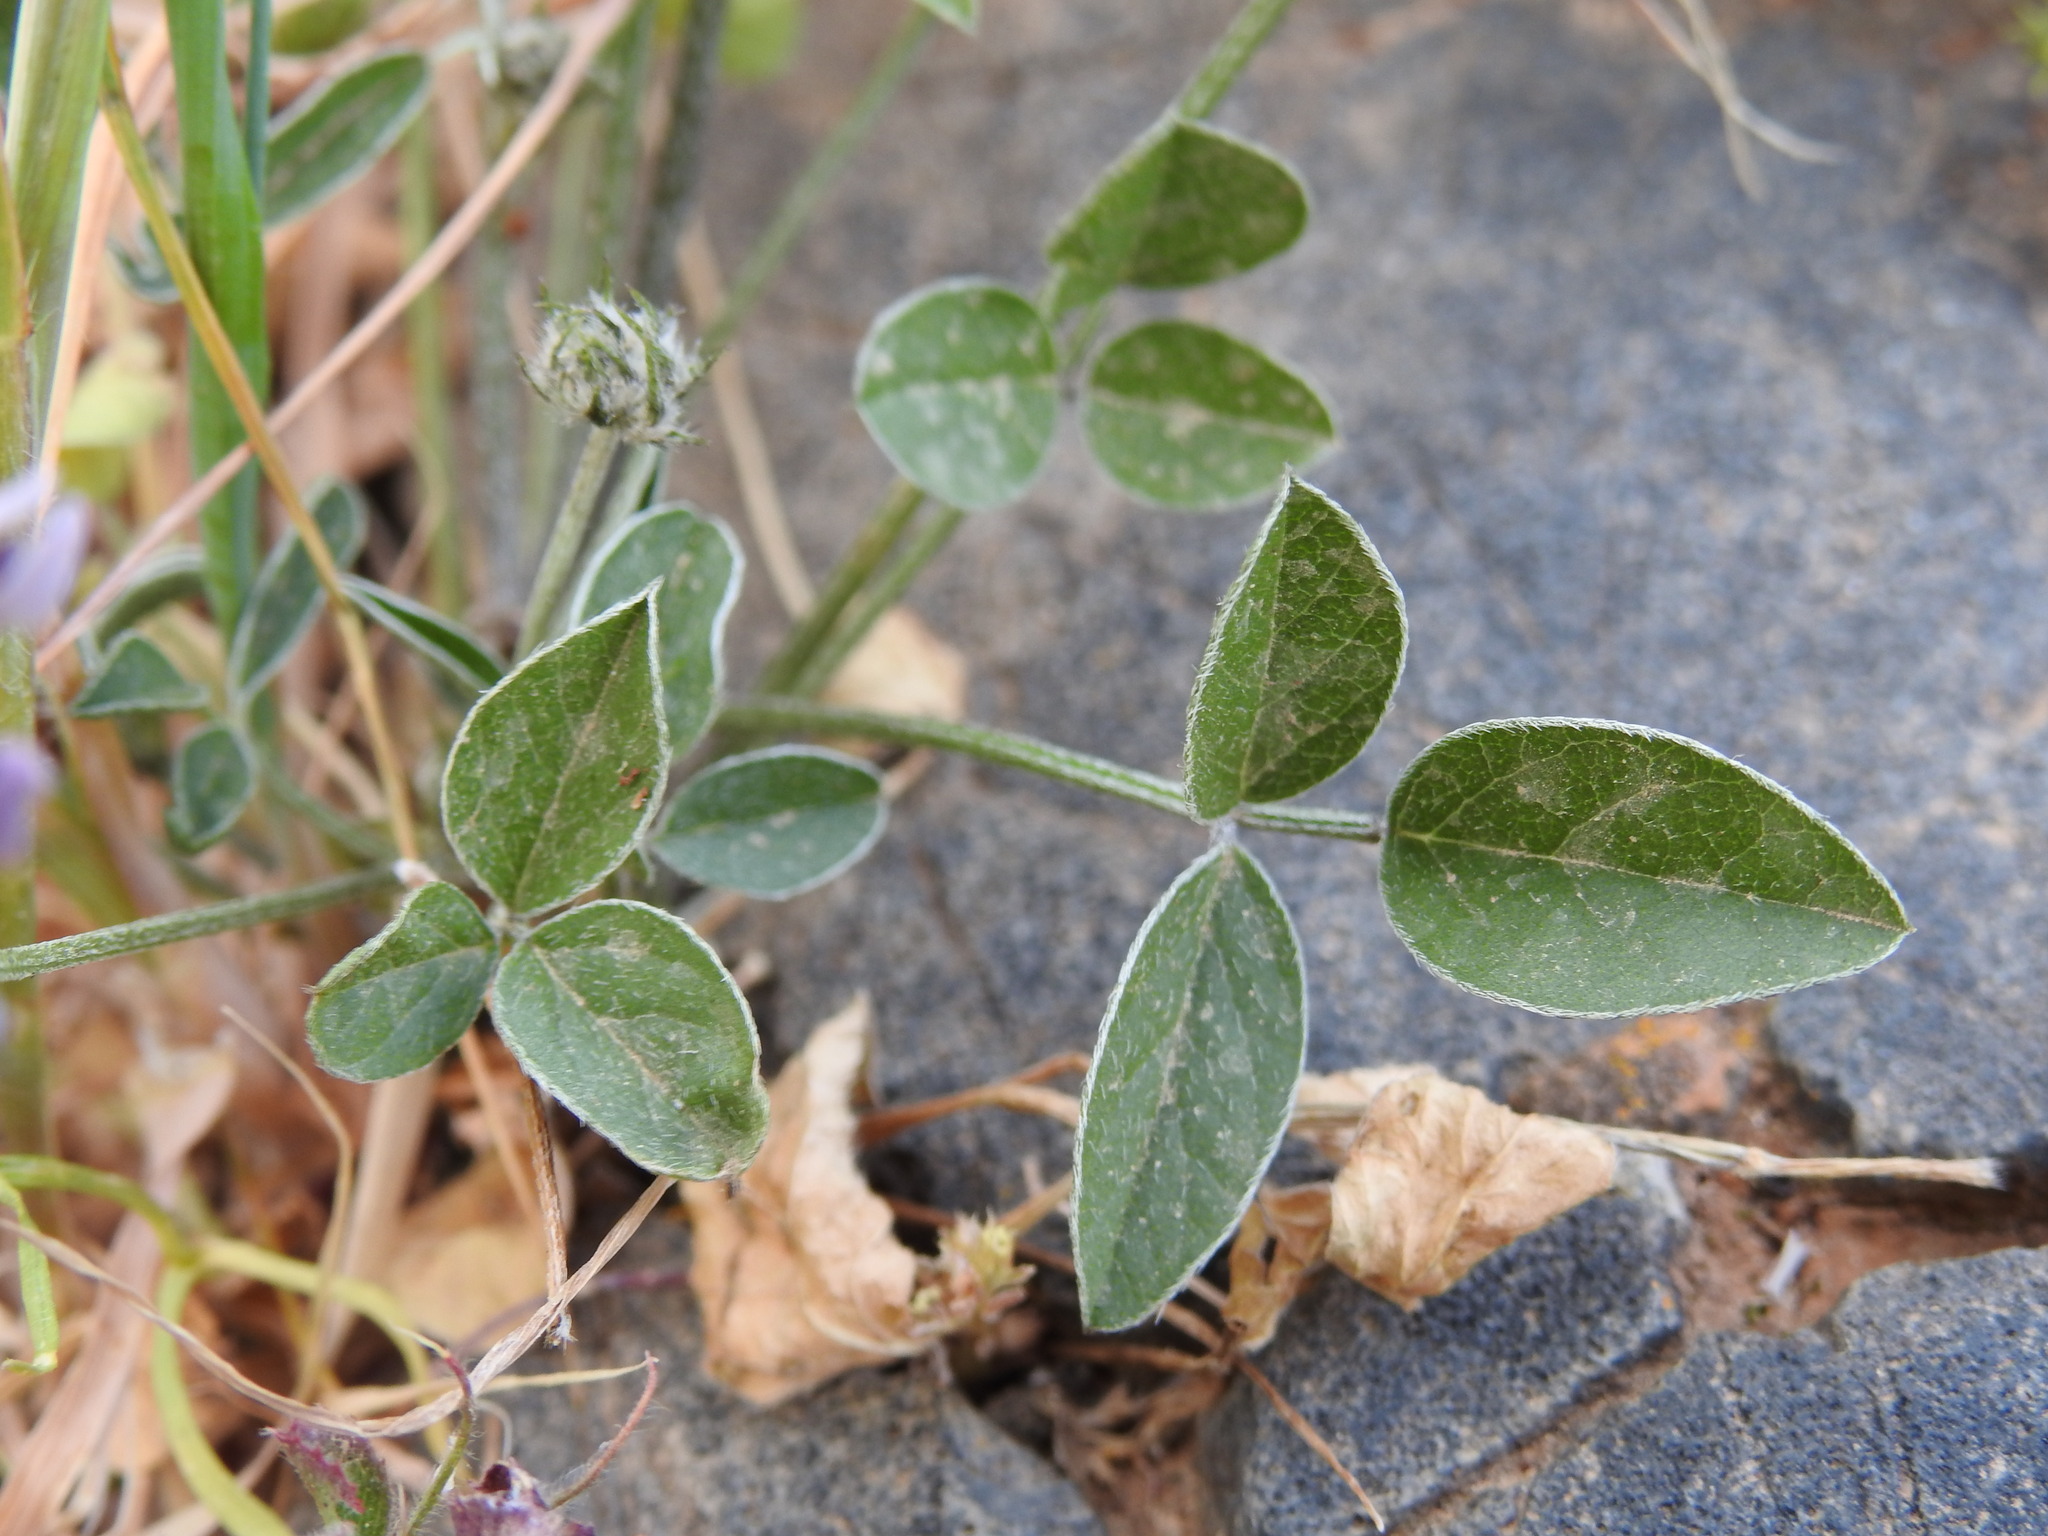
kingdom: Plantae
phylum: Tracheophyta
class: Magnoliopsida
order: Fabales
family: Fabaceae
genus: Bituminaria
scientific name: Bituminaria bituminosa
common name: Arabian pea
